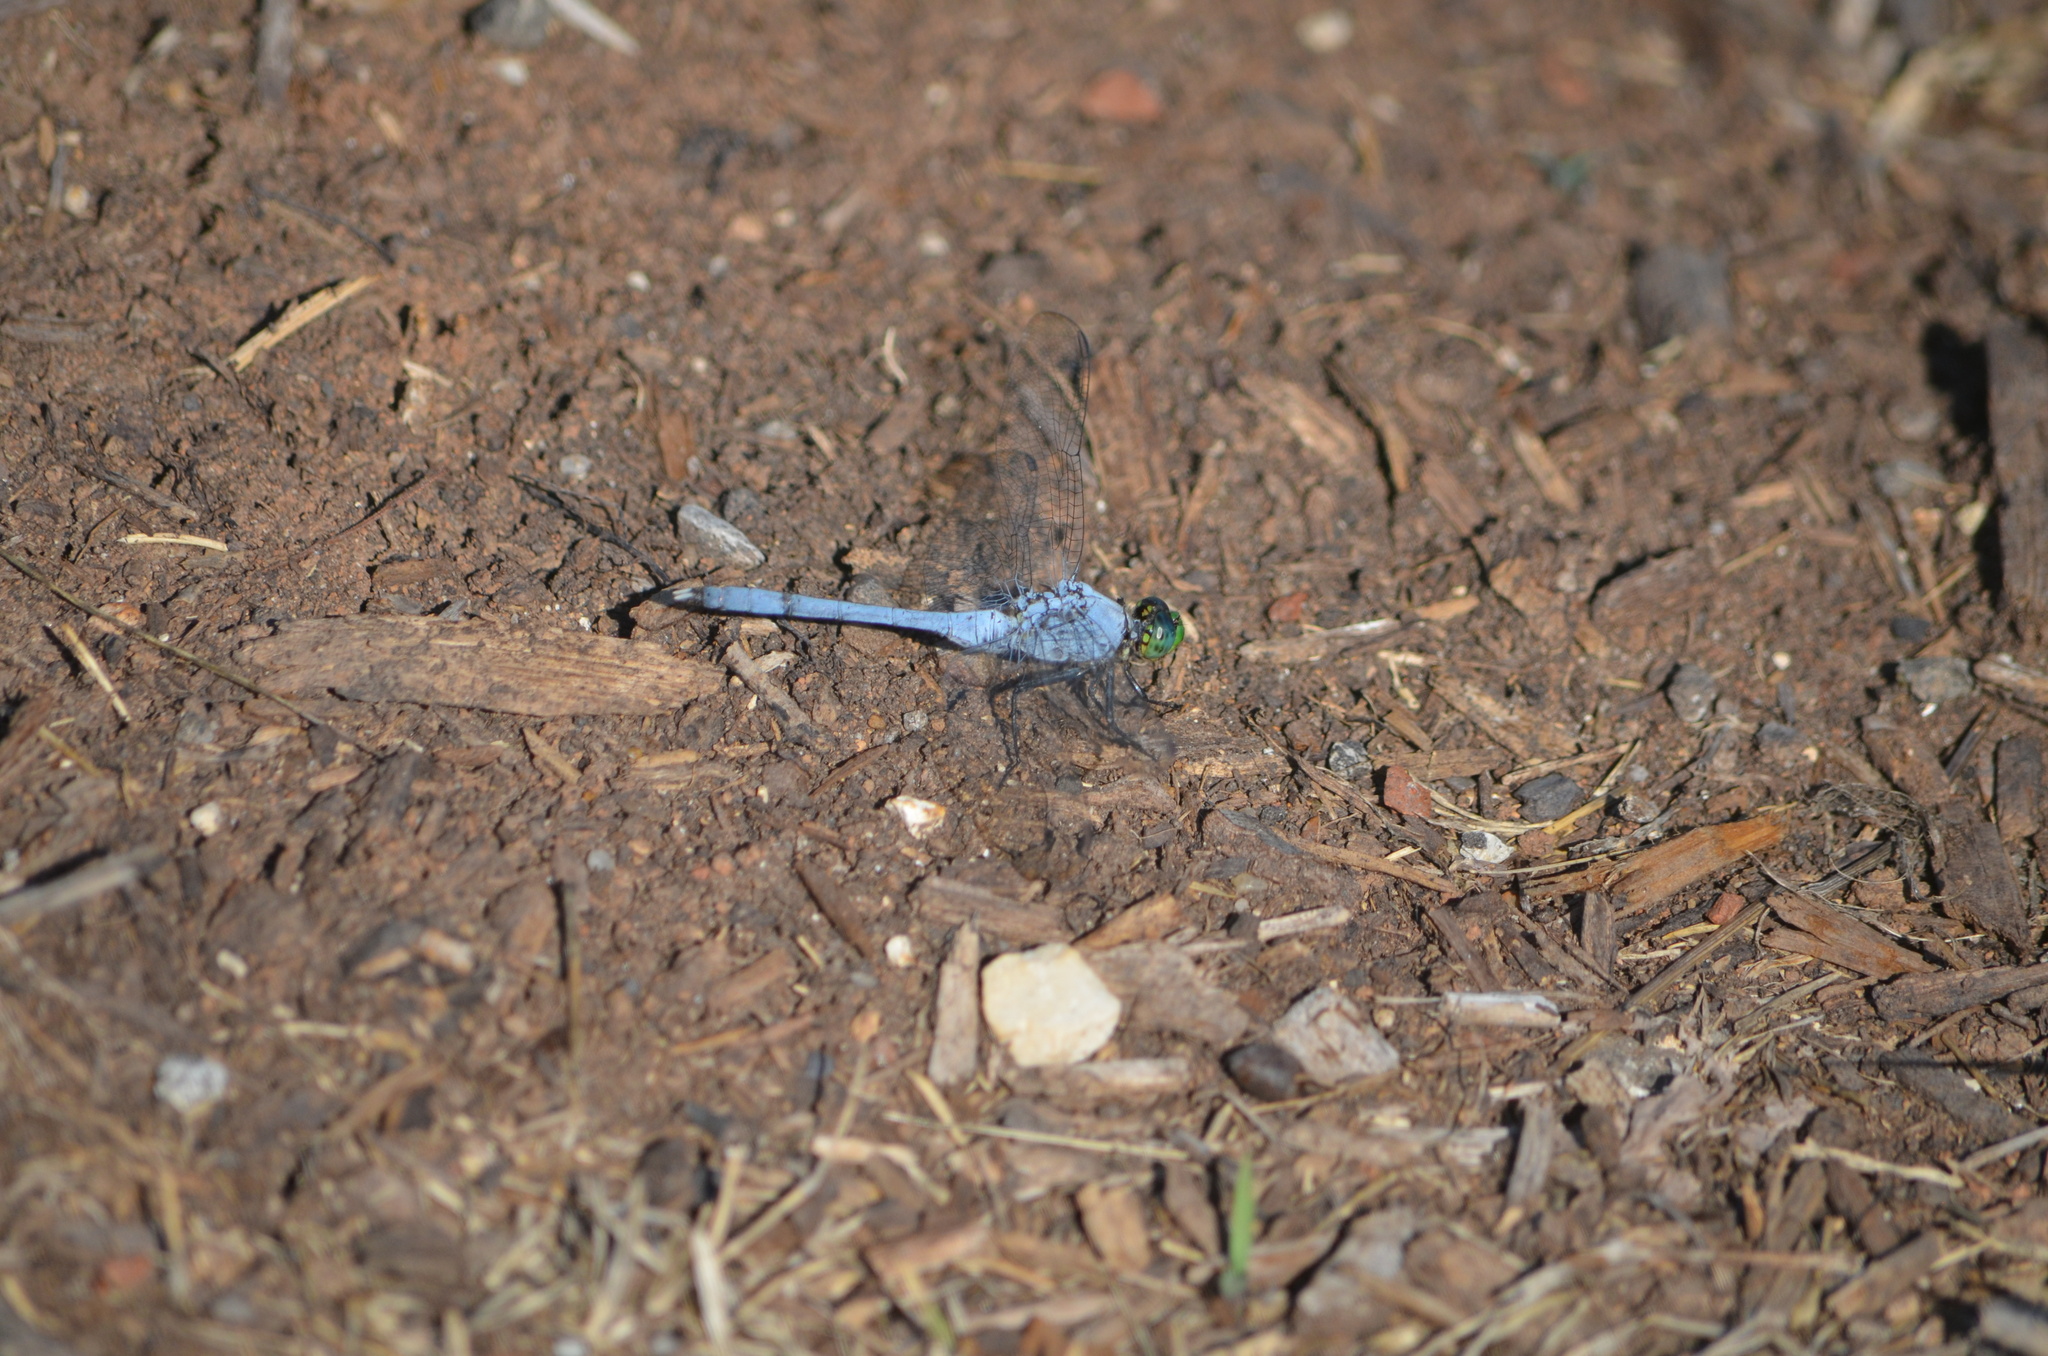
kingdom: Animalia
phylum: Arthropoda
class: Insecta
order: Odonata
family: Libellulidae
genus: Erythemis
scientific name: Erythemis simplicicollis
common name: Eastern pondhawk
